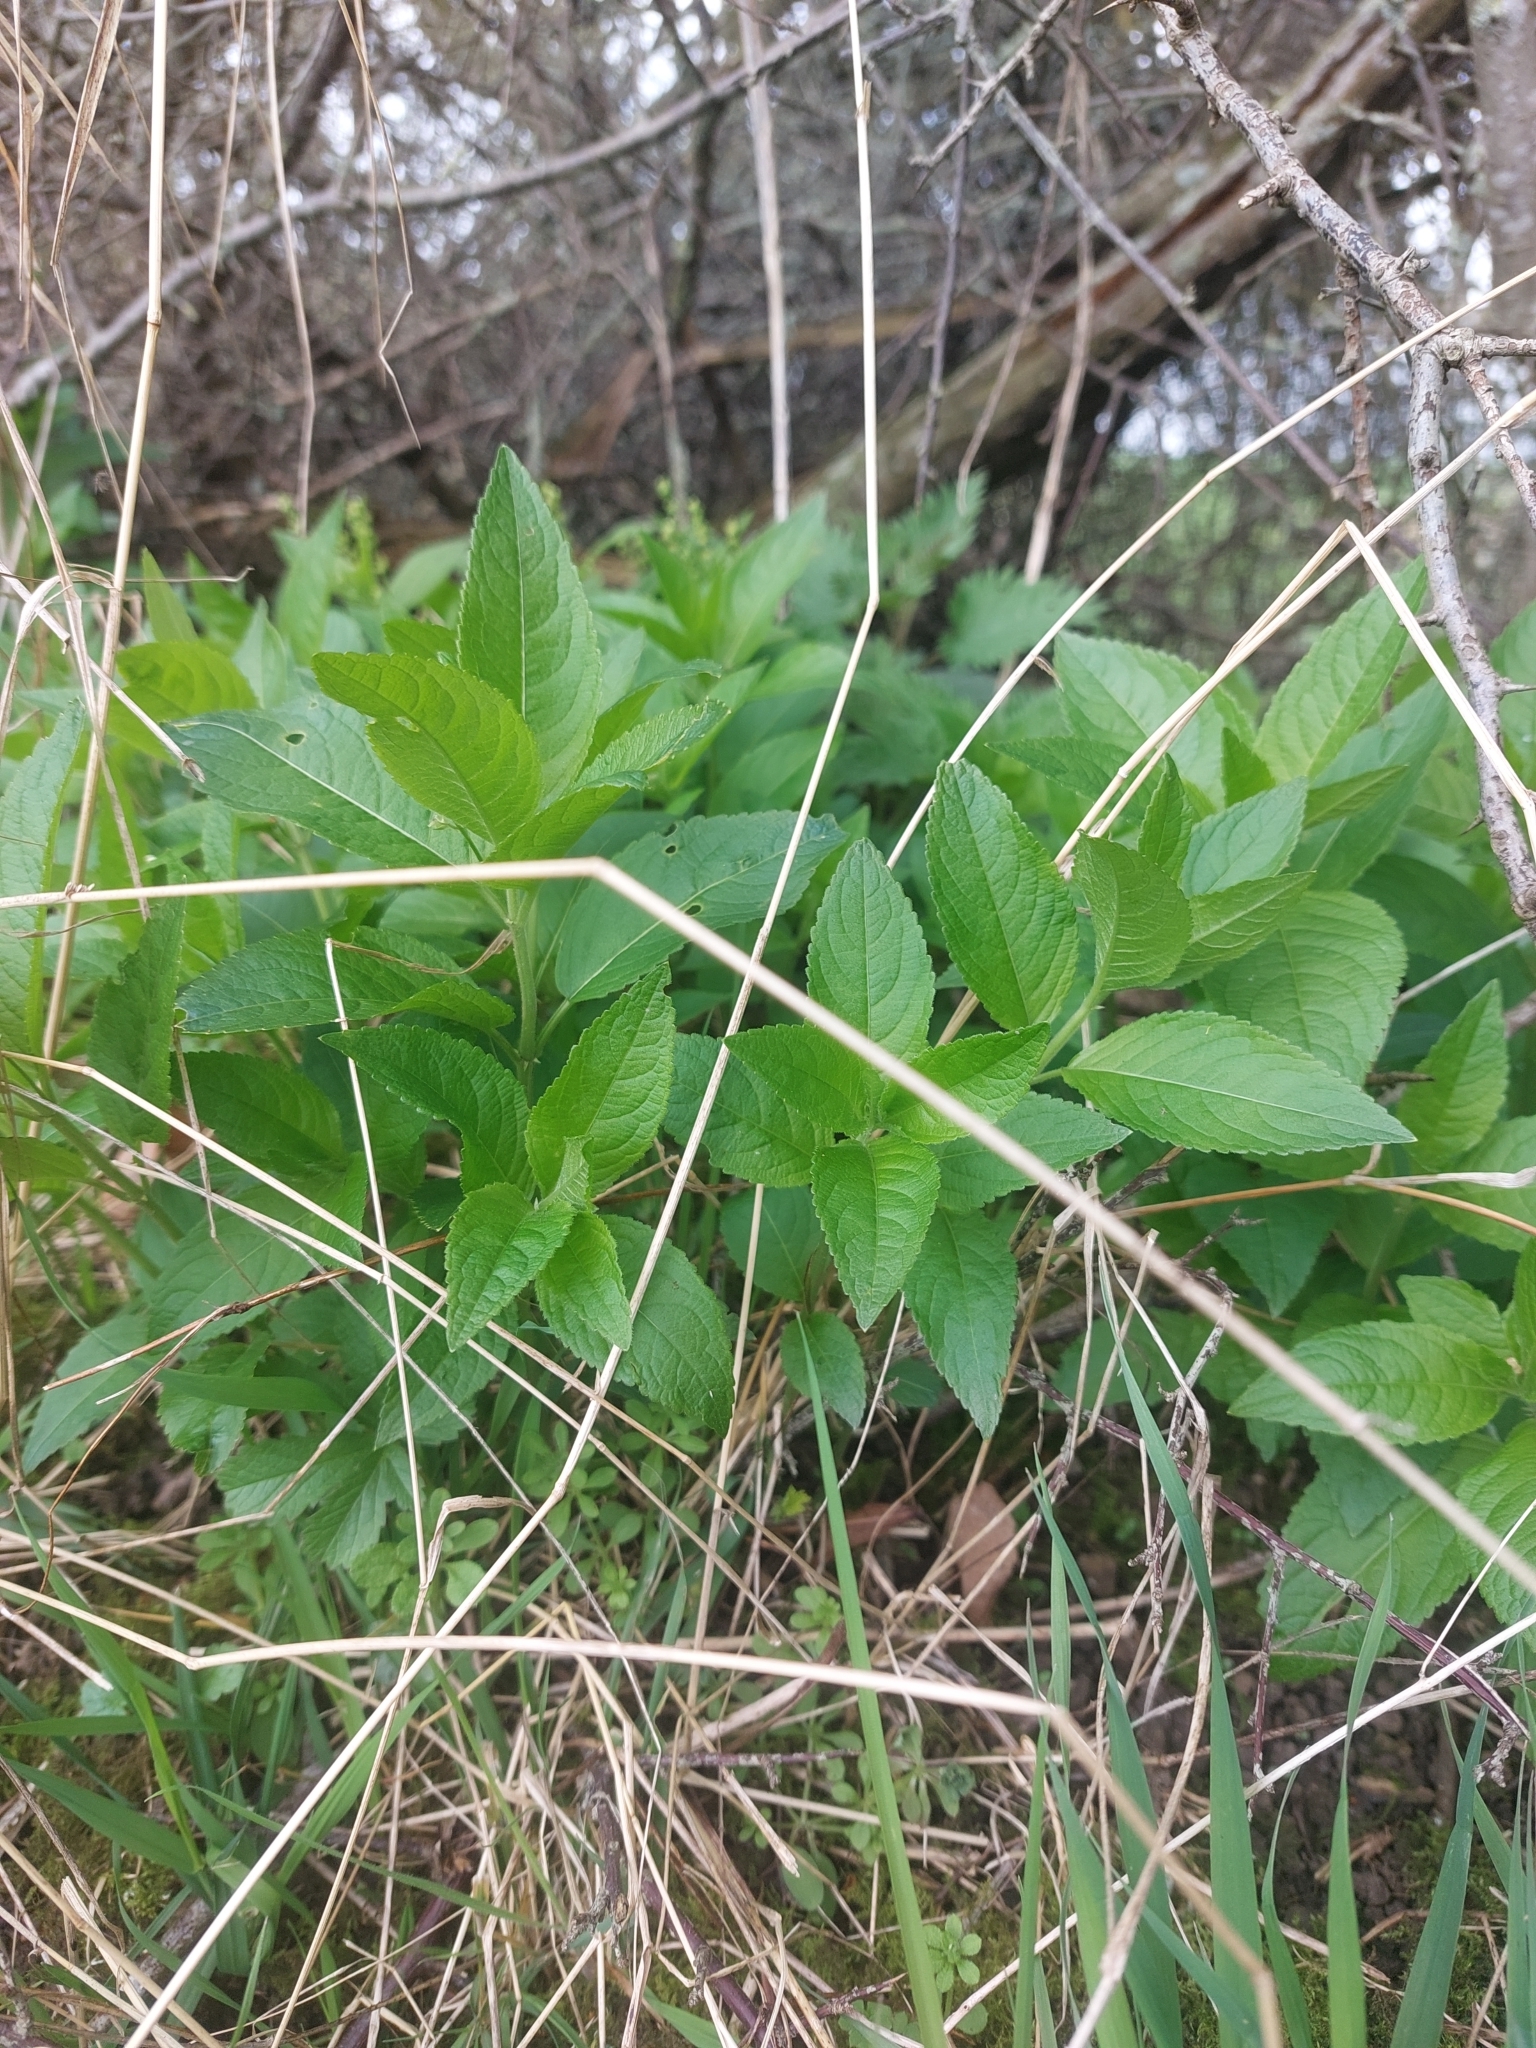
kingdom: Plantae
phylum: Tracheophyta
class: Magnoliopsida
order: Malpighiales
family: Euphorbiaceae
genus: Mercurialis
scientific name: Mercurialis perennis
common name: Dog mercury
